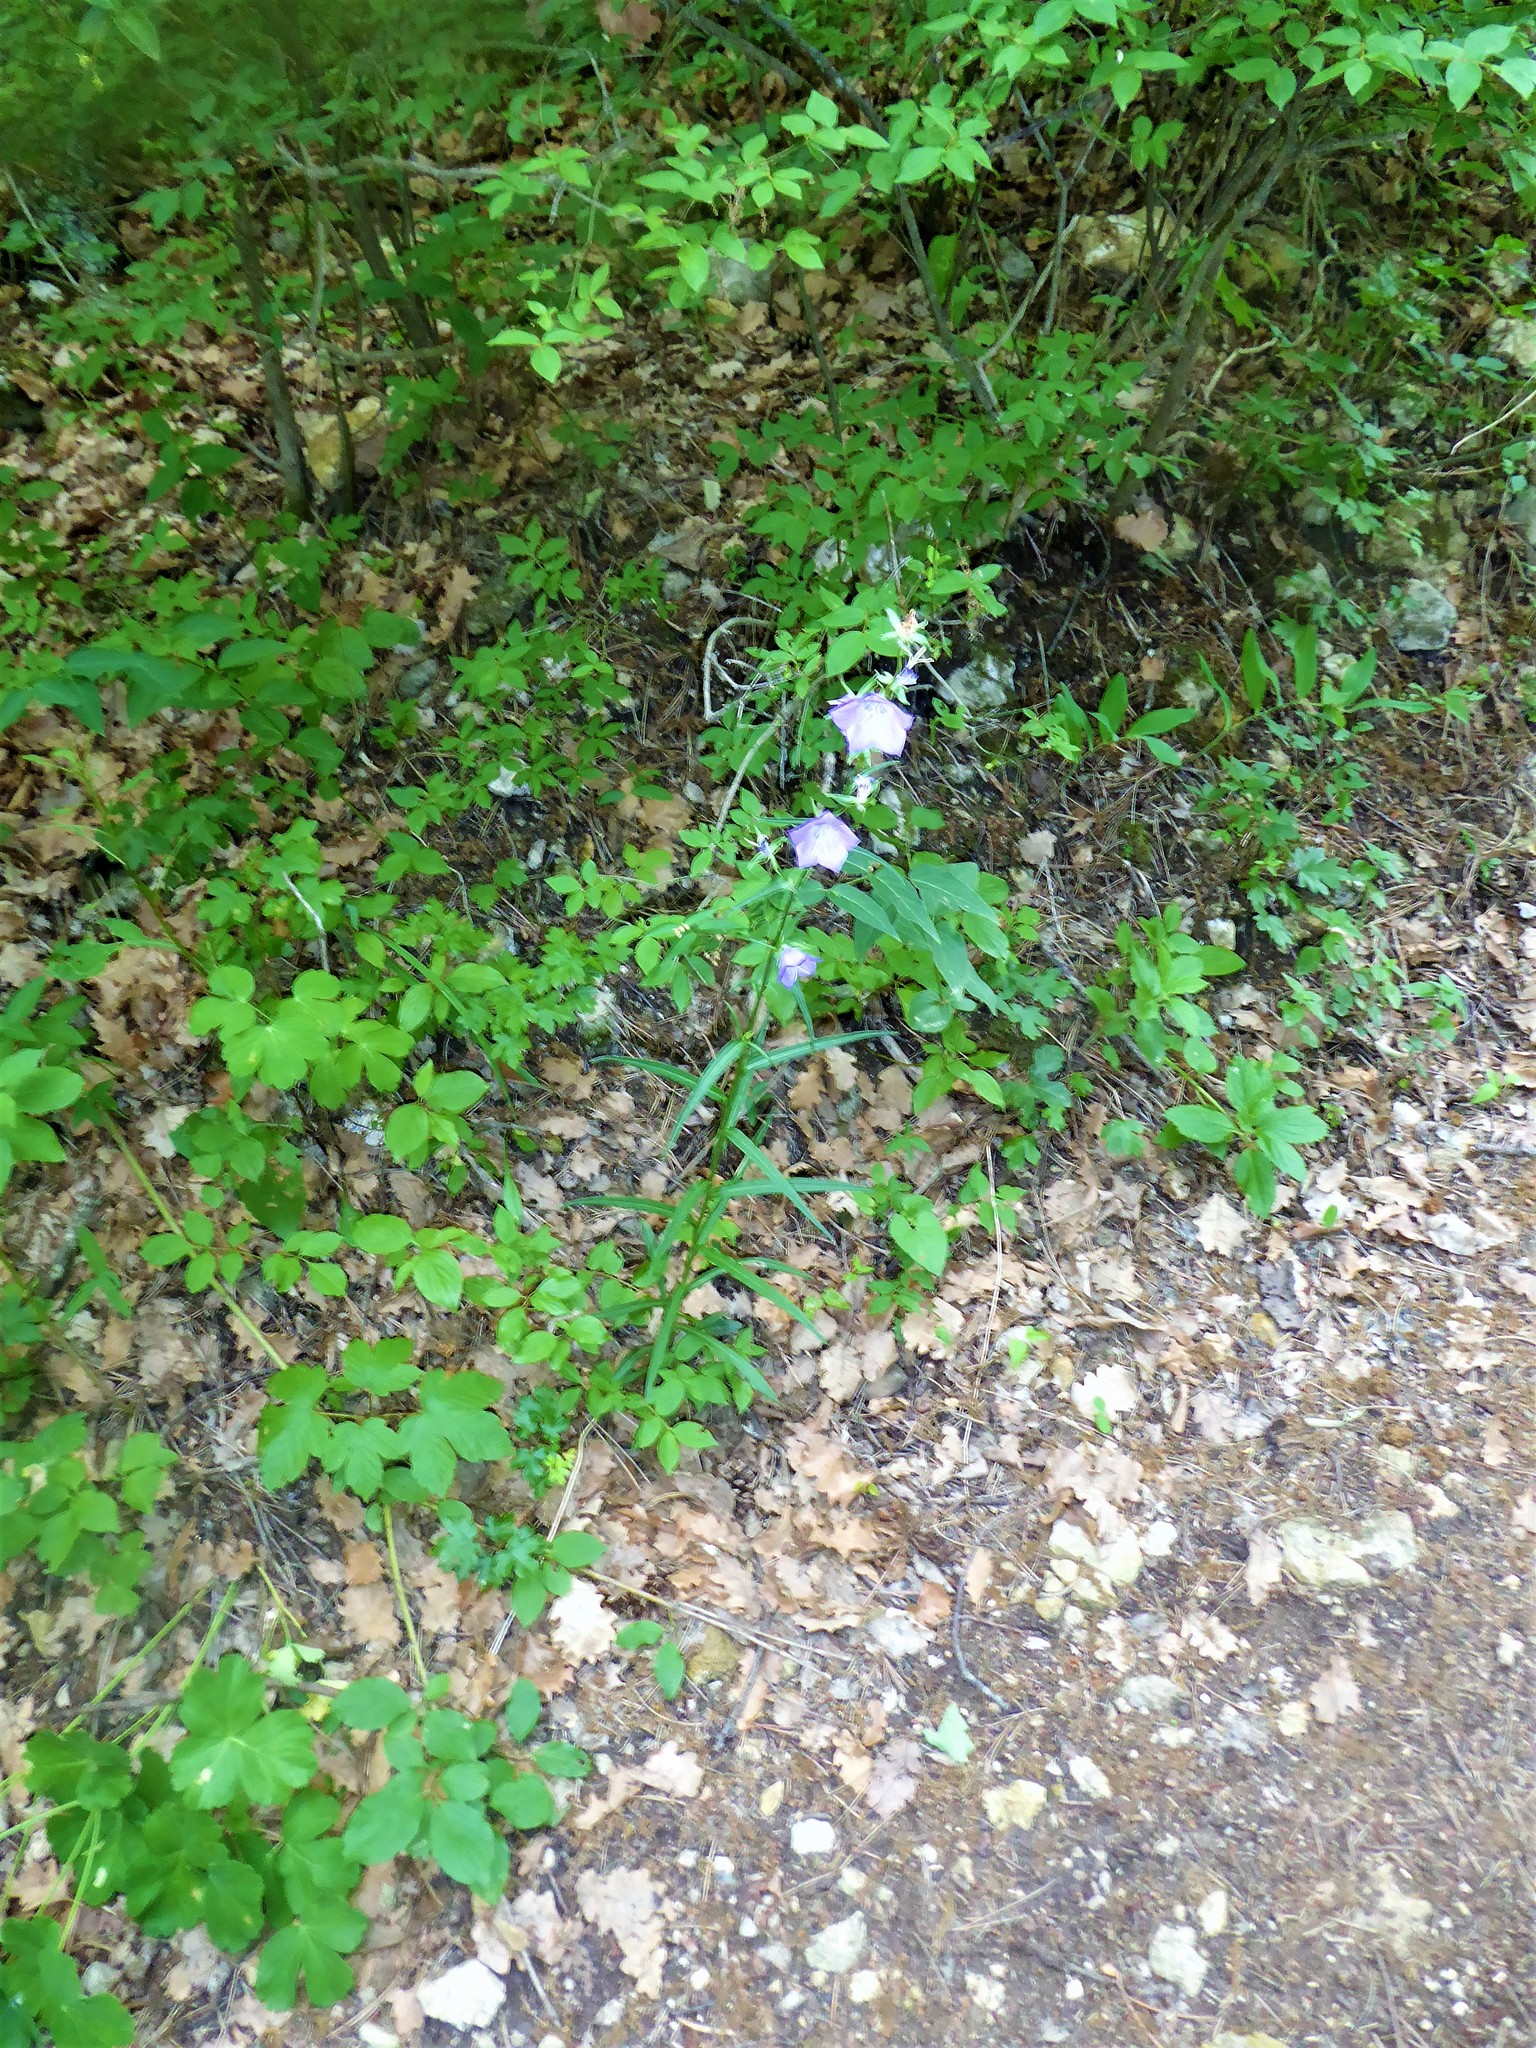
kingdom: Plantae
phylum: Tracheophyta
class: Magnoliopsida
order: Asterales
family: Campanulaceae
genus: Campanula
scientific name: Campanula persicifolia
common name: Peach-leaved bellflower
